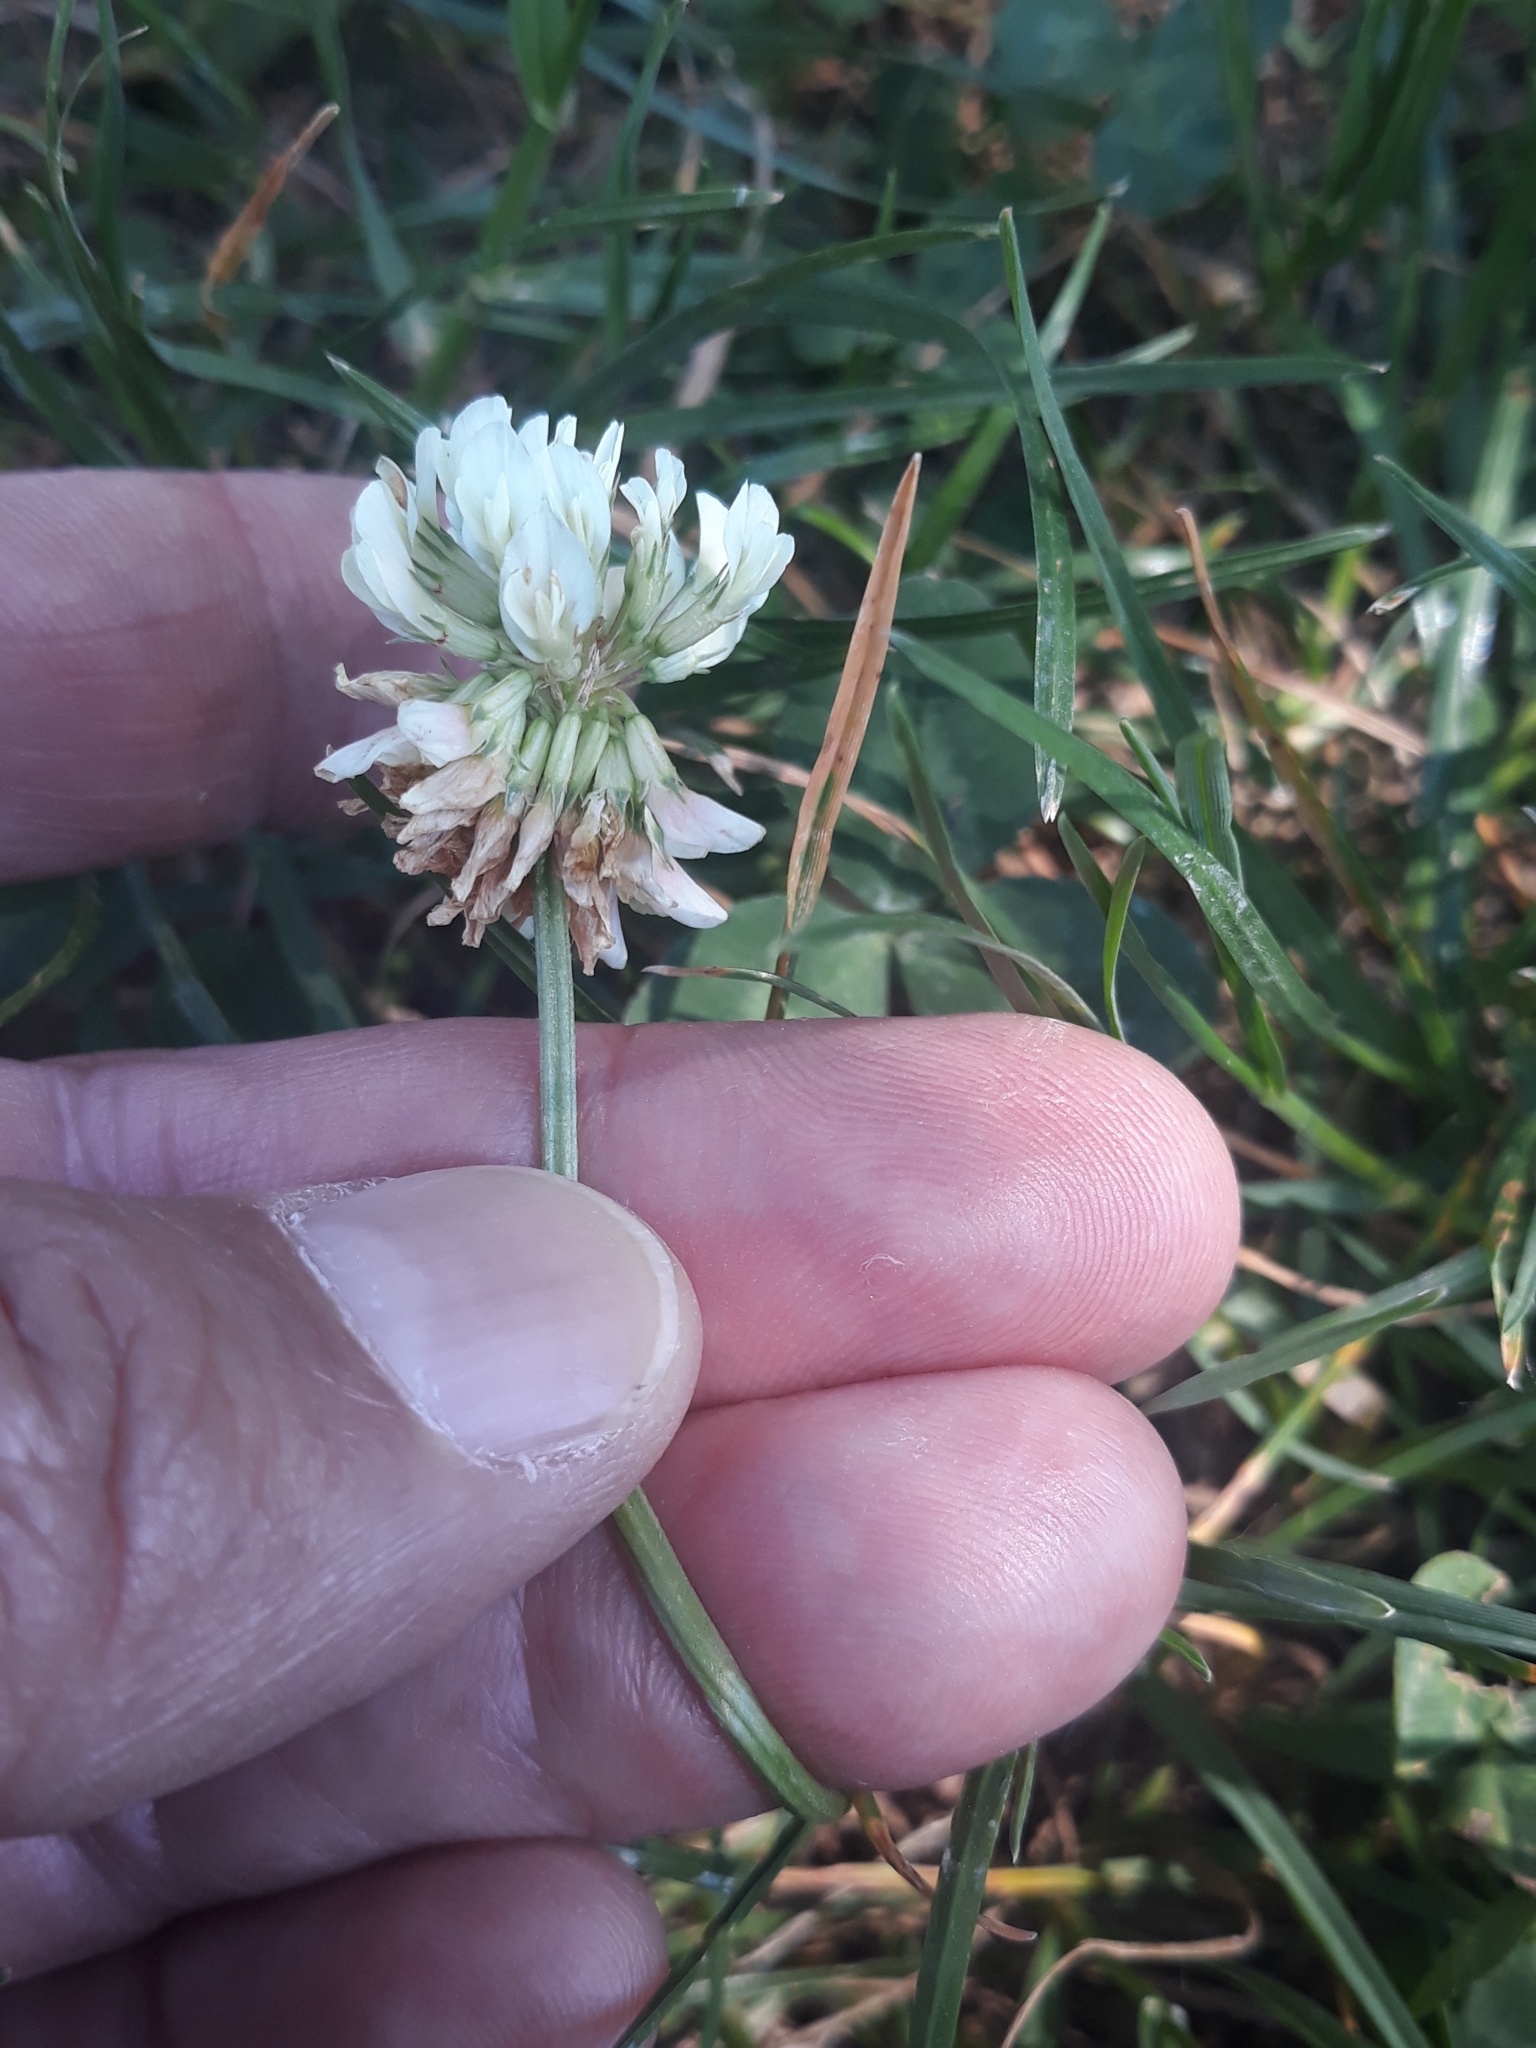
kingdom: Plantae
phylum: Tracheophyta
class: Magnoliopsida
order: Fabales
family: Fabaceae
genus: Trifolium
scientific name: Trifolium repens
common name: White clover
